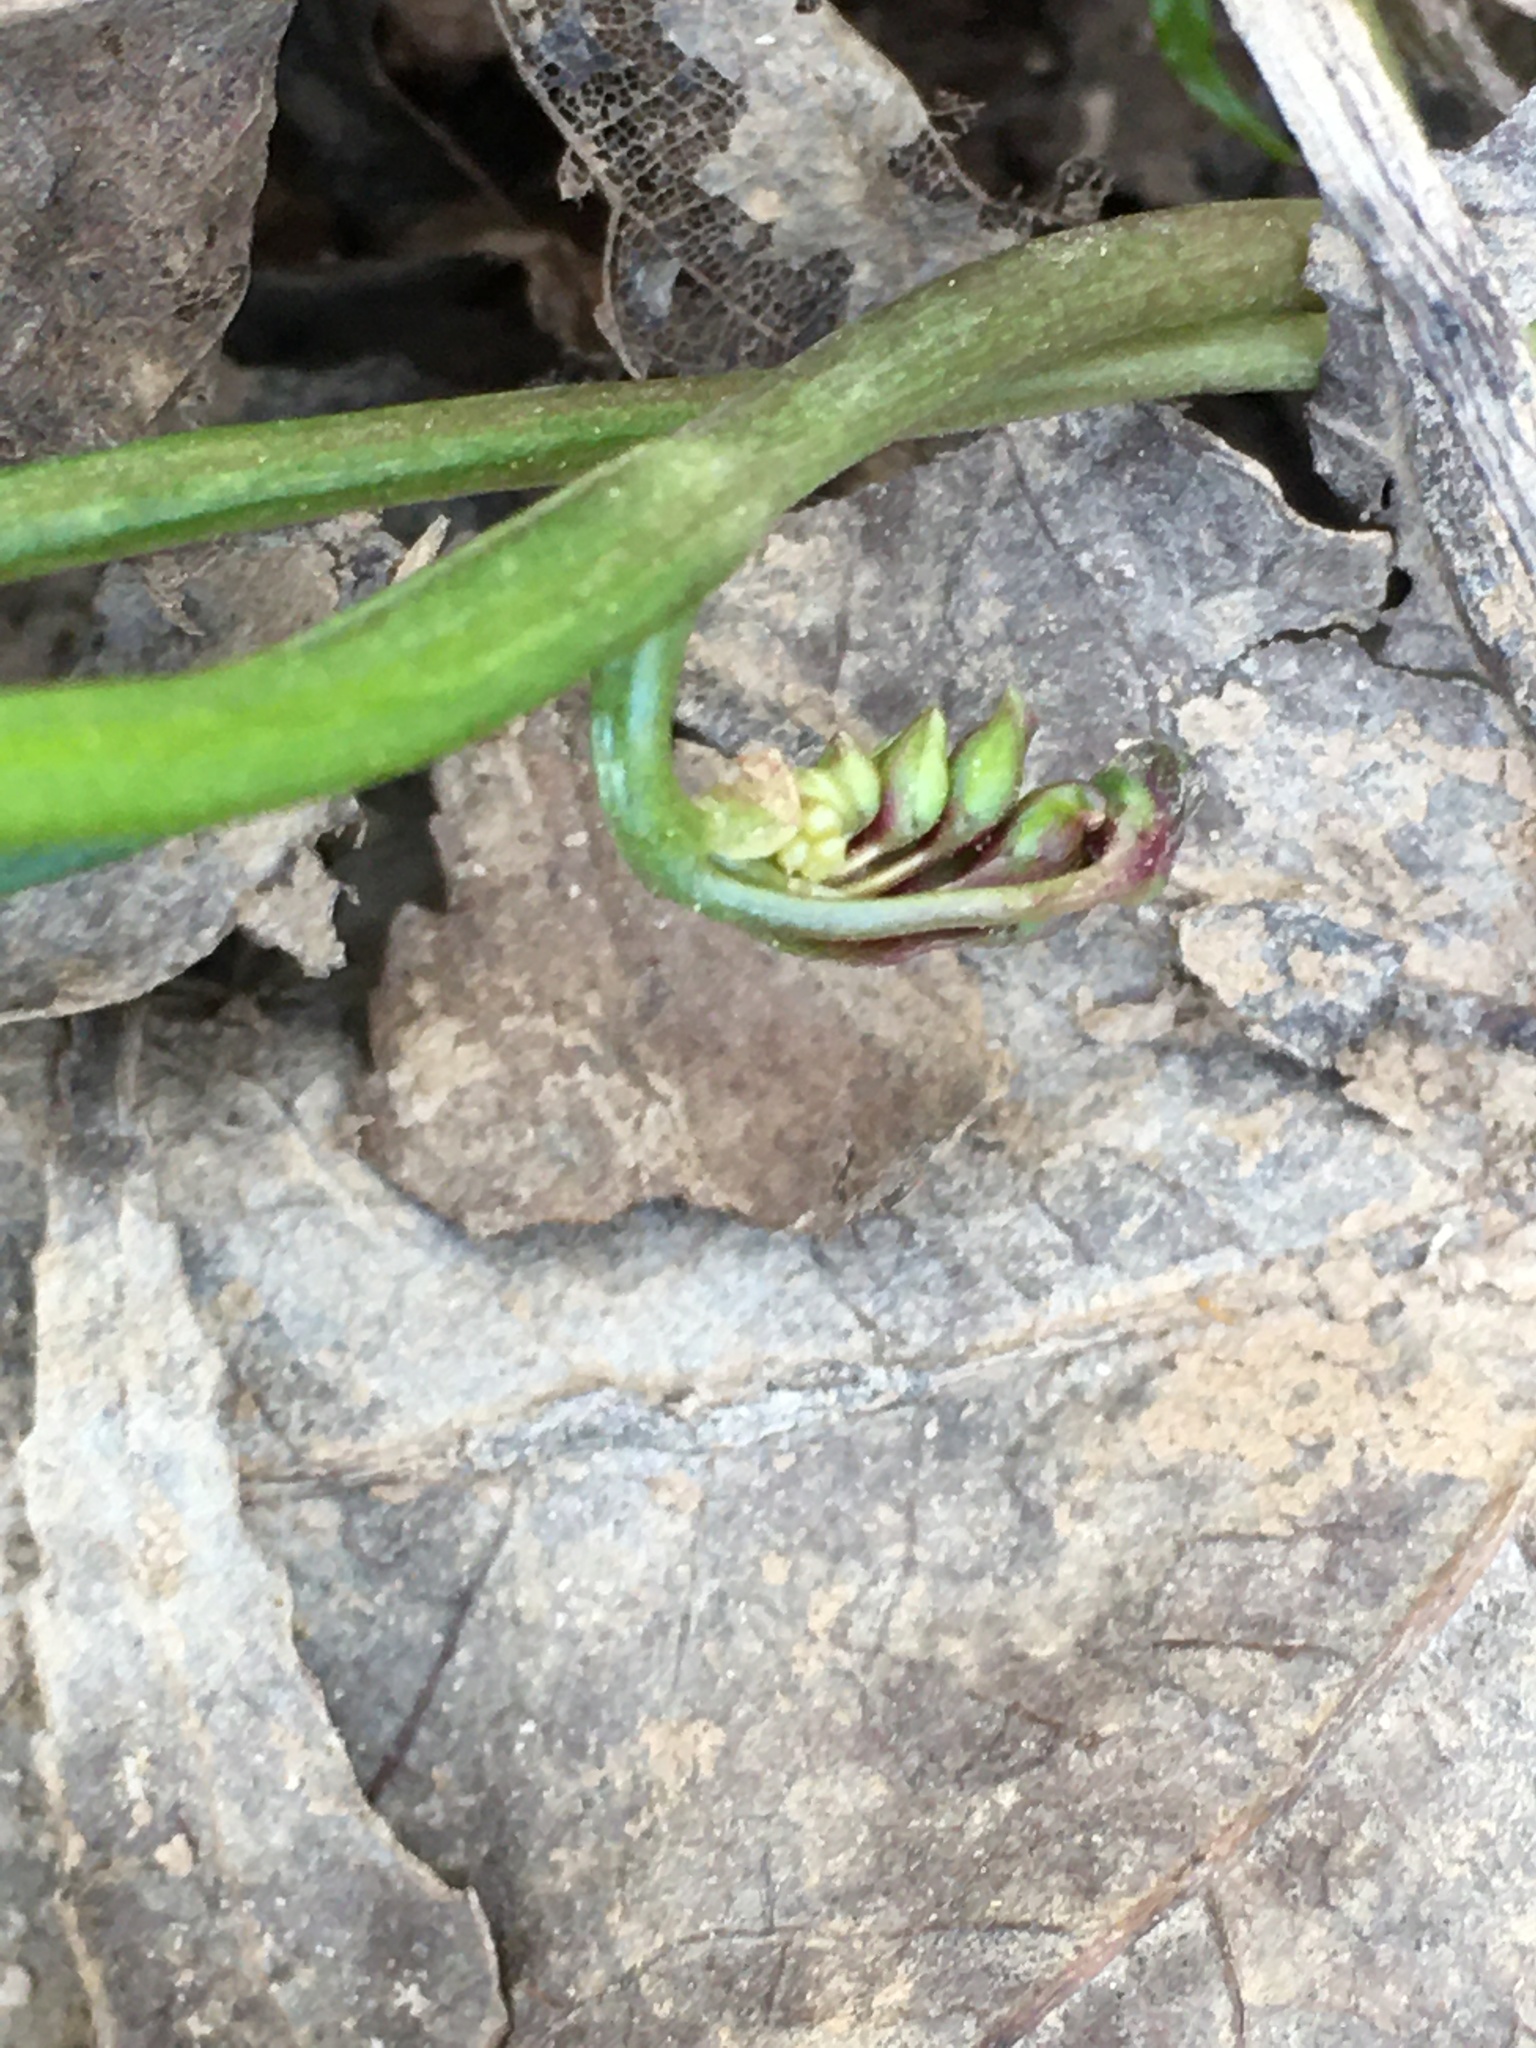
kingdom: Plantae
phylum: Tracheophyta
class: Magnoliopsida
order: Caryophyllales
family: Montiaceae
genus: Claytonia
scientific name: Claytonia virginica
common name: Virginia springbeauty
